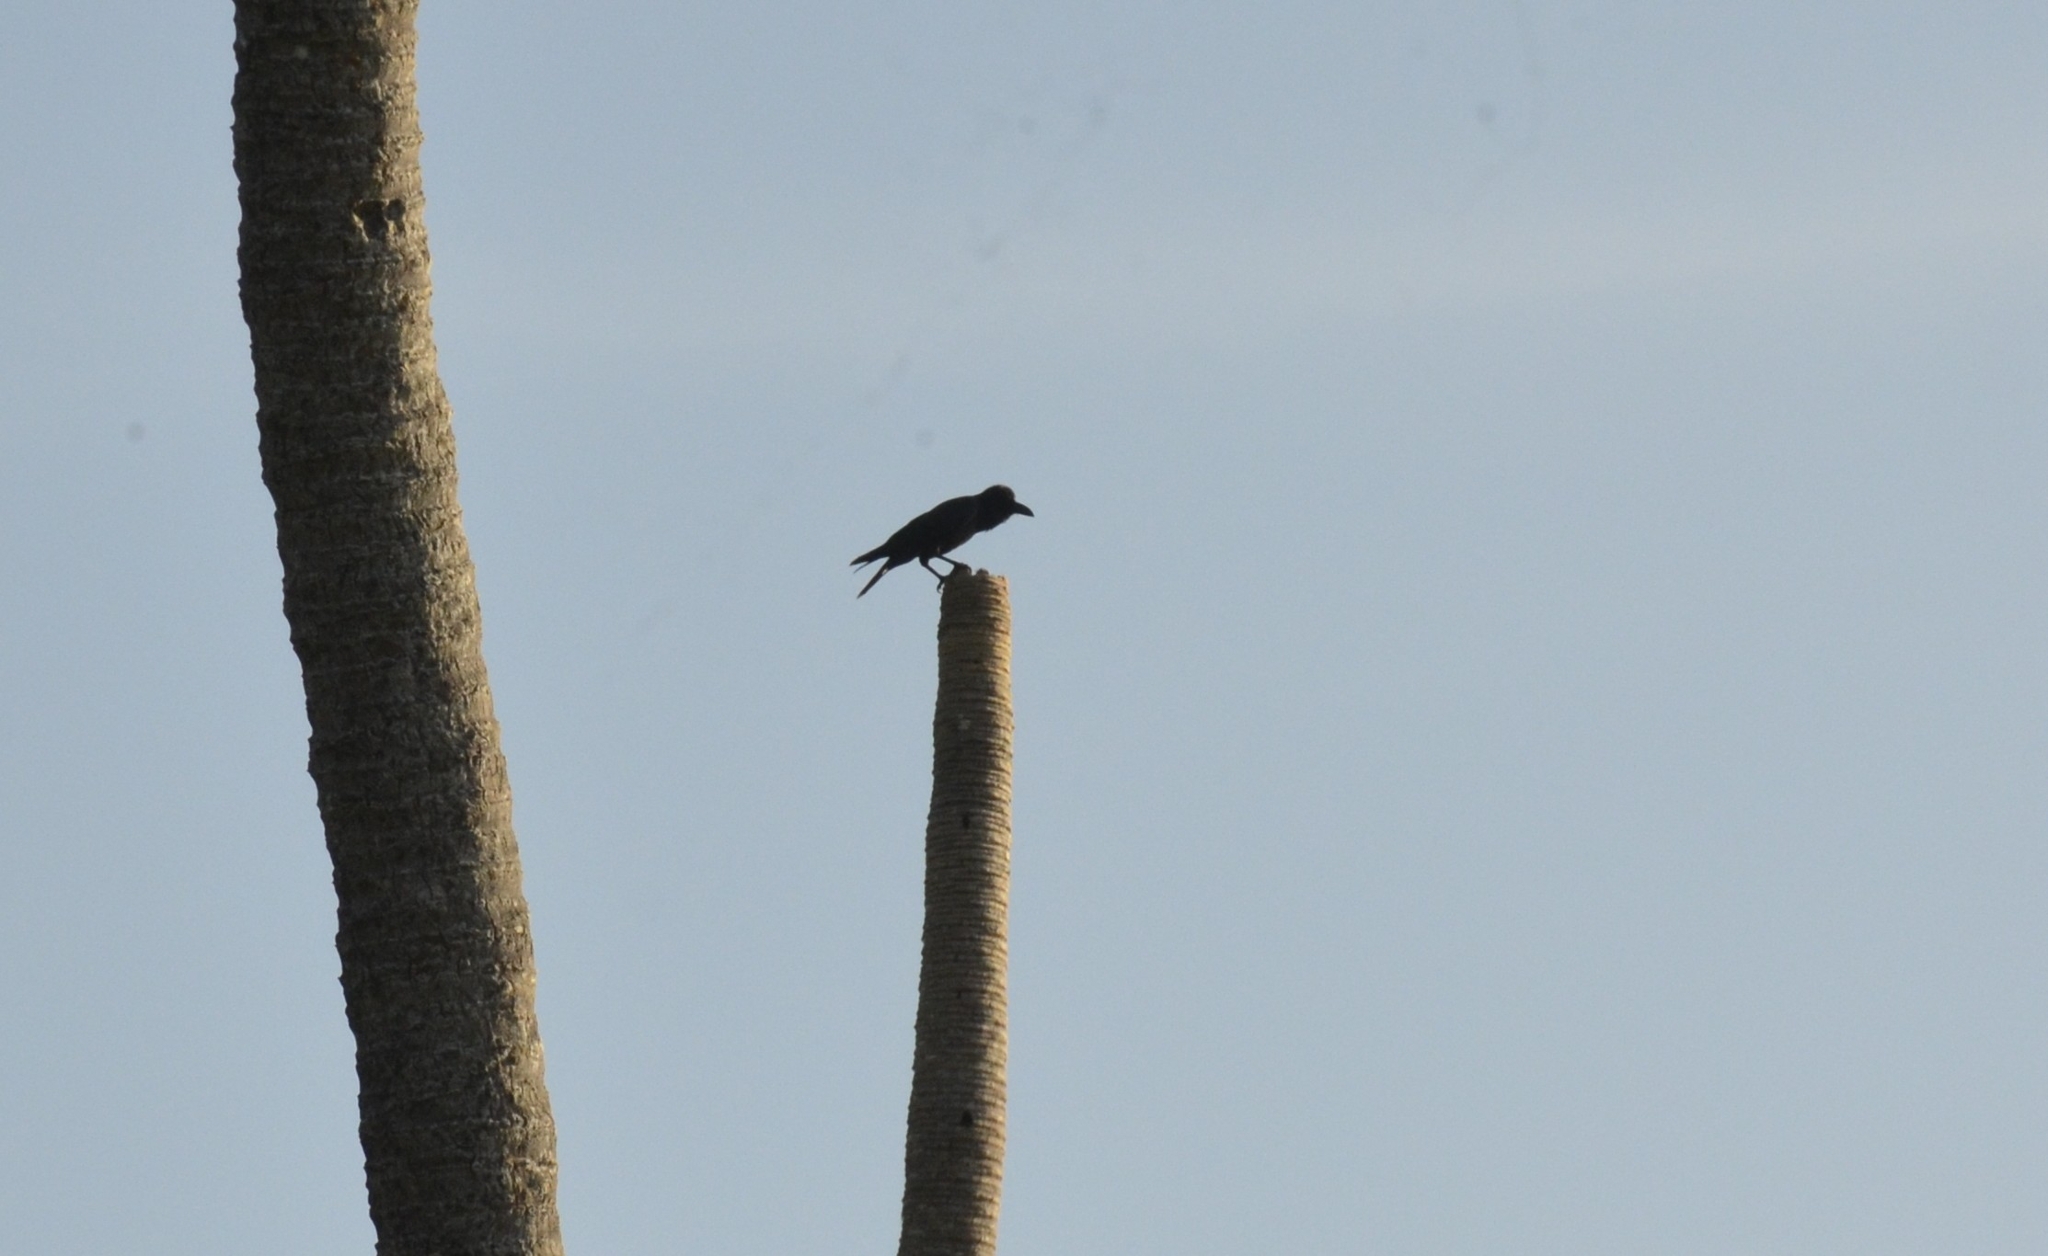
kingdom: Animalia
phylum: Chordata
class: Aves
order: Passeriformes
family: Corvidae
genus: Corvus
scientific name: Corvus macrorhynchos
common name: Large-billed crow
